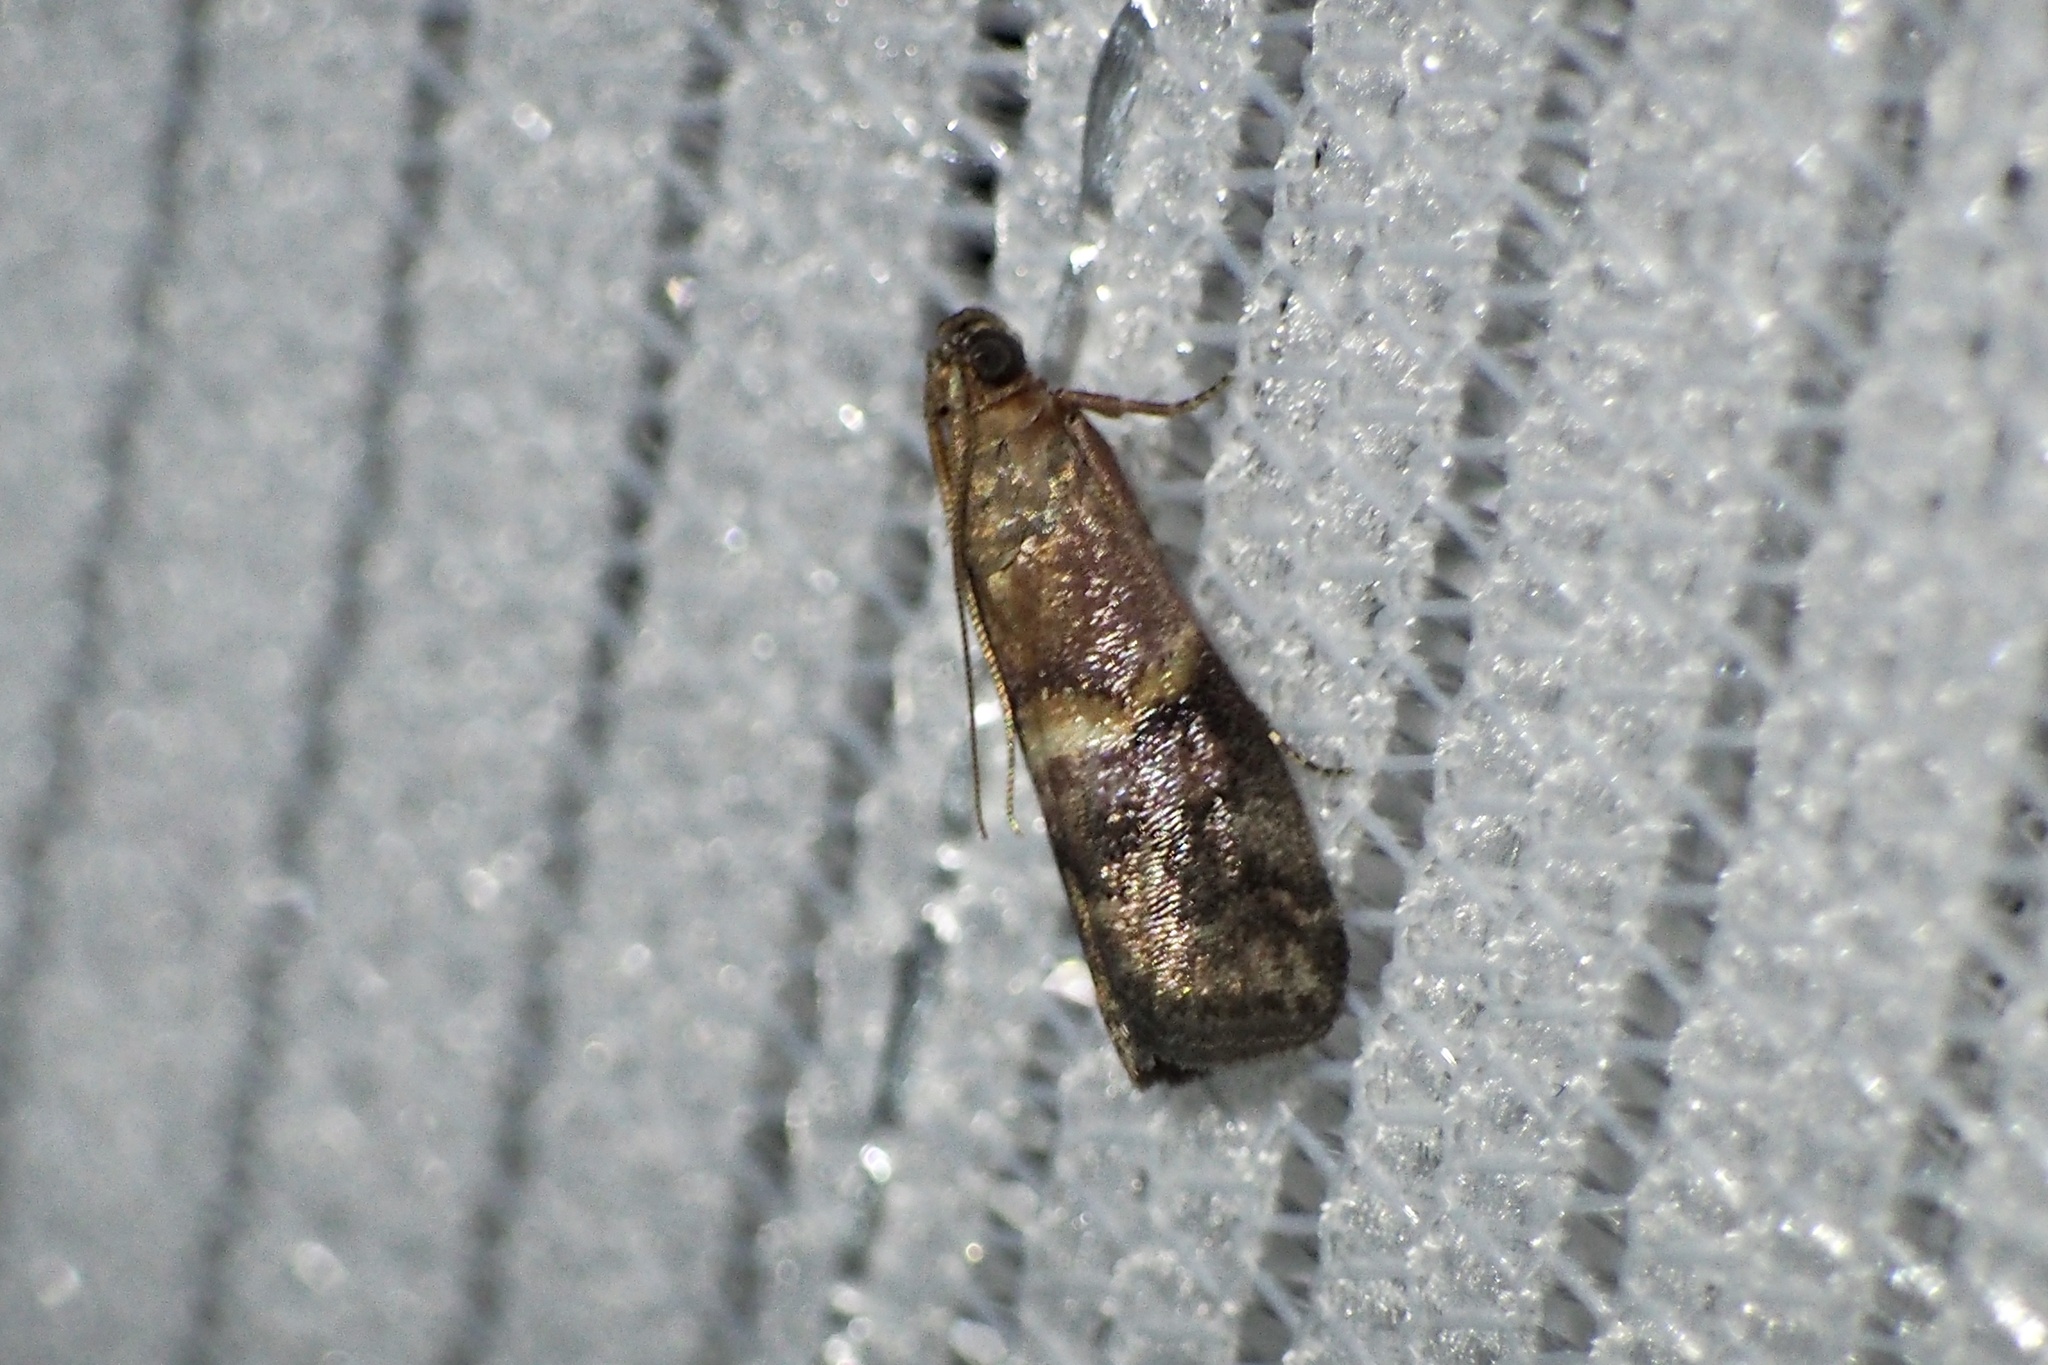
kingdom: Animalia
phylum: Arthropoda
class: Insecta
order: Lepidoptera
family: Pyralidae
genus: Acrobasis
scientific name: Acrobasis obrutella
